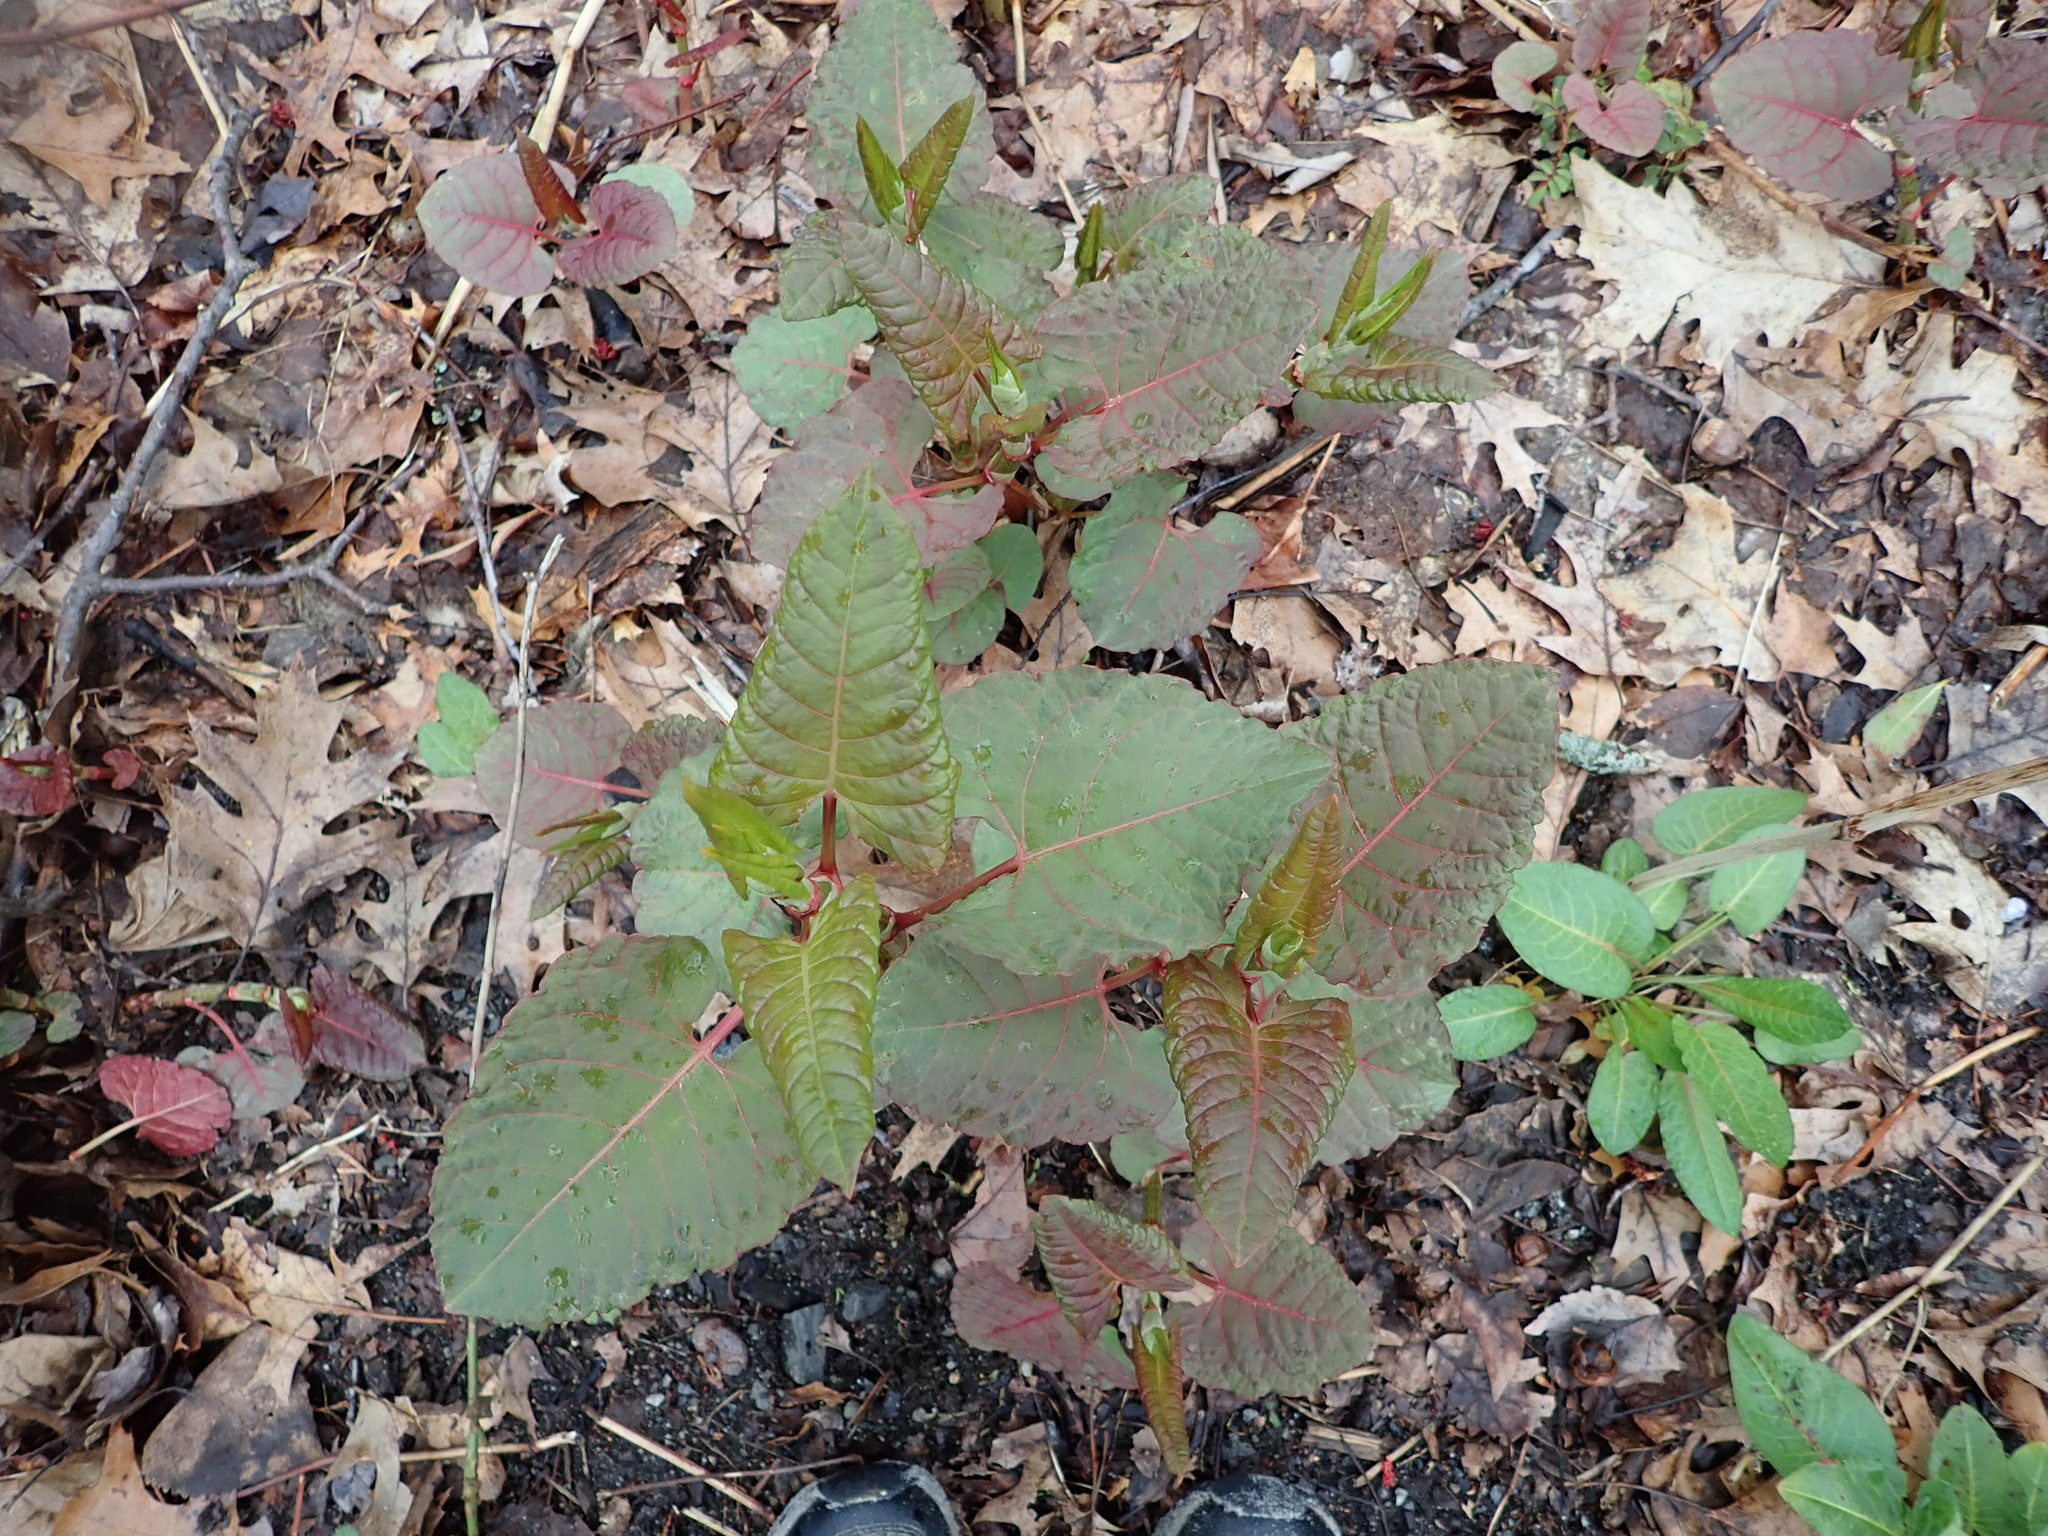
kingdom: Plantae
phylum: Tracheophyta
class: Magnoliopsida
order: Caryophyllales
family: Polygonaceae
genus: Reynoutria
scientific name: Reynoutria japonica
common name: Japanese knotweed
